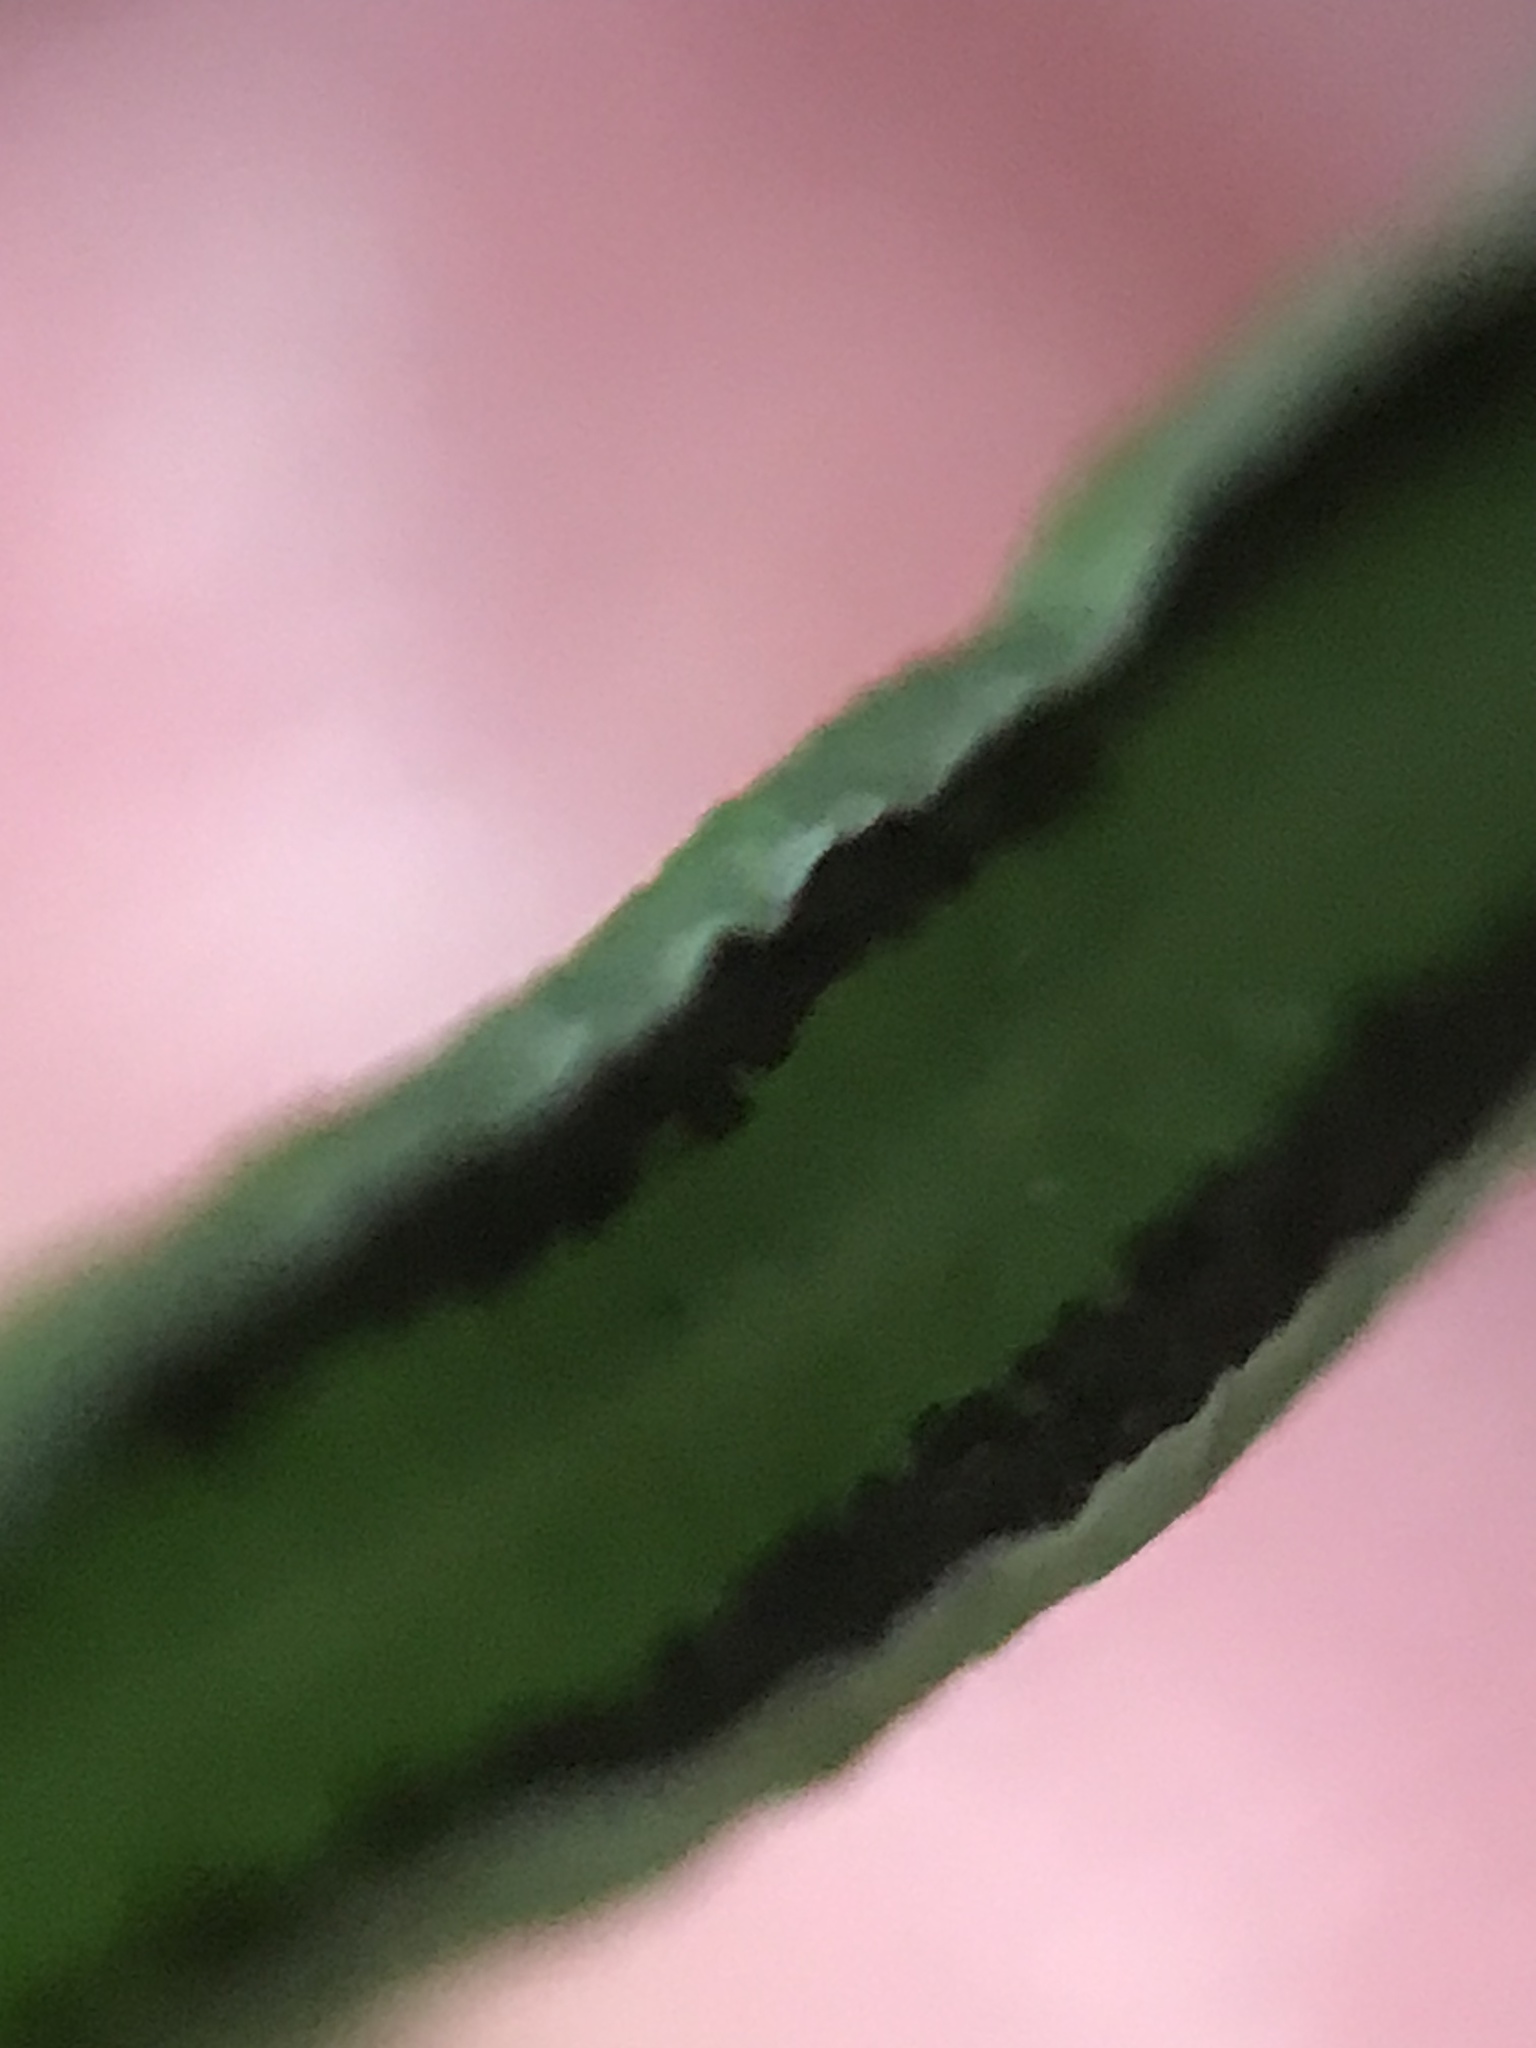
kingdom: Plantae
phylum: Tracheophyta
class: Polypodiopsida
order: Polypodiales
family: Pteridaceae
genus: Pellaea
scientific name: Pellaea atropurpurea
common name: Hairy cliffbrake
